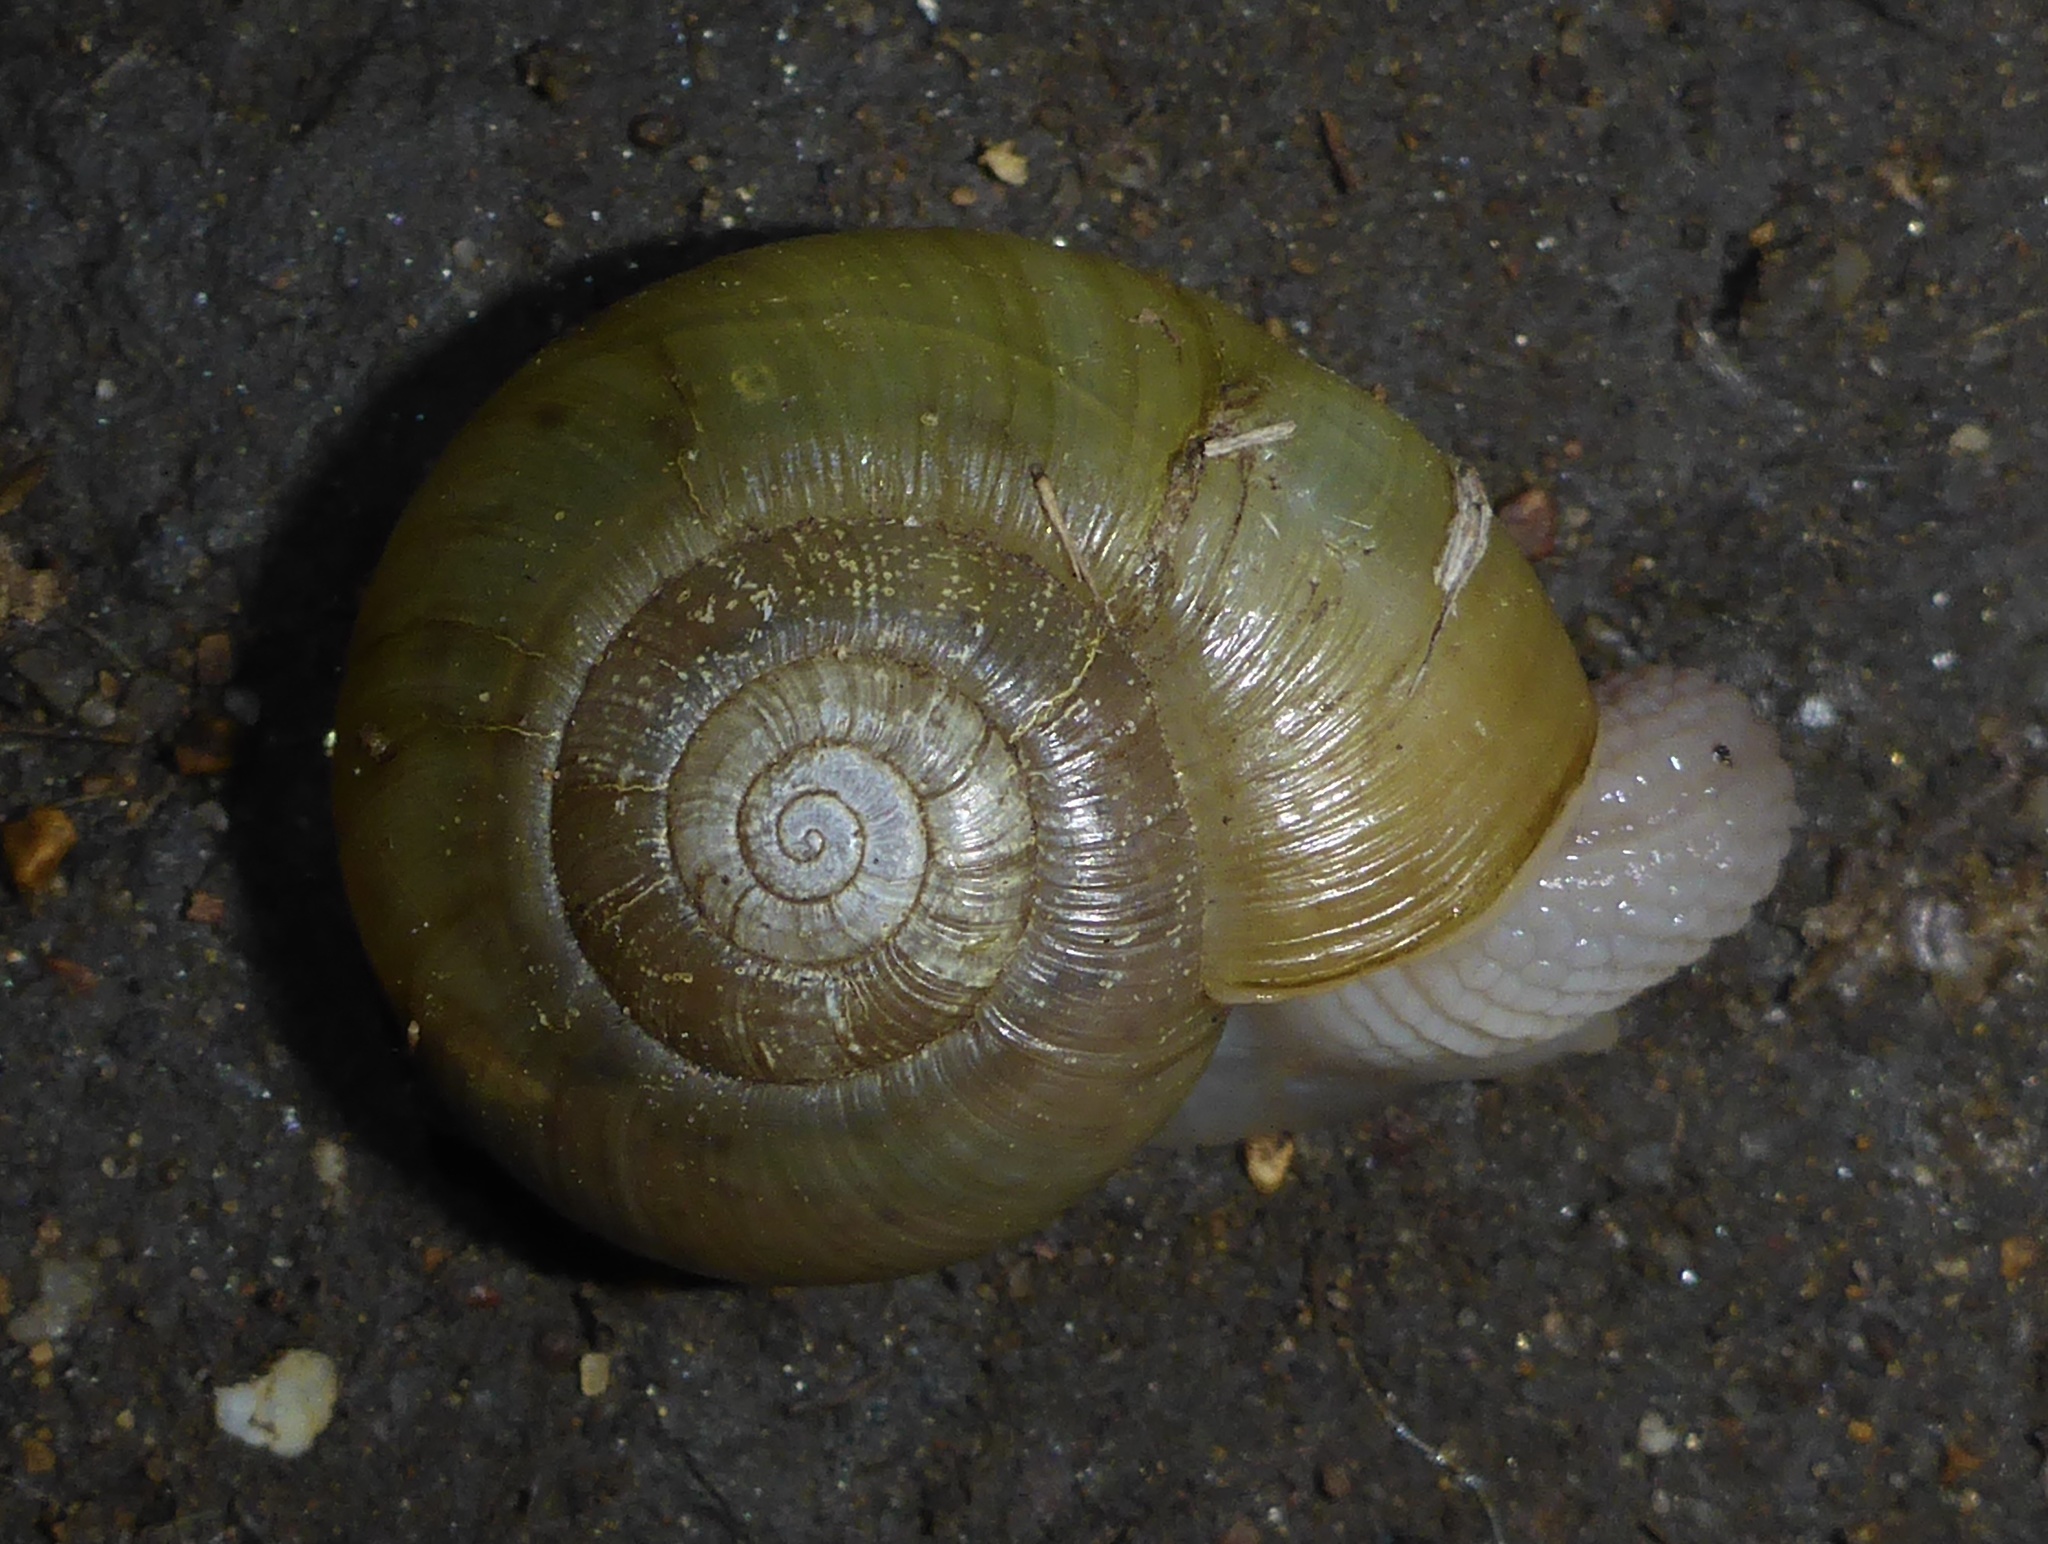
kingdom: Animalia
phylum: Mollusca
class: Gastropoda
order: Stylommatophora
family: Haplotrematidae
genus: Haplotrema
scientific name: Haplotrema minimum
